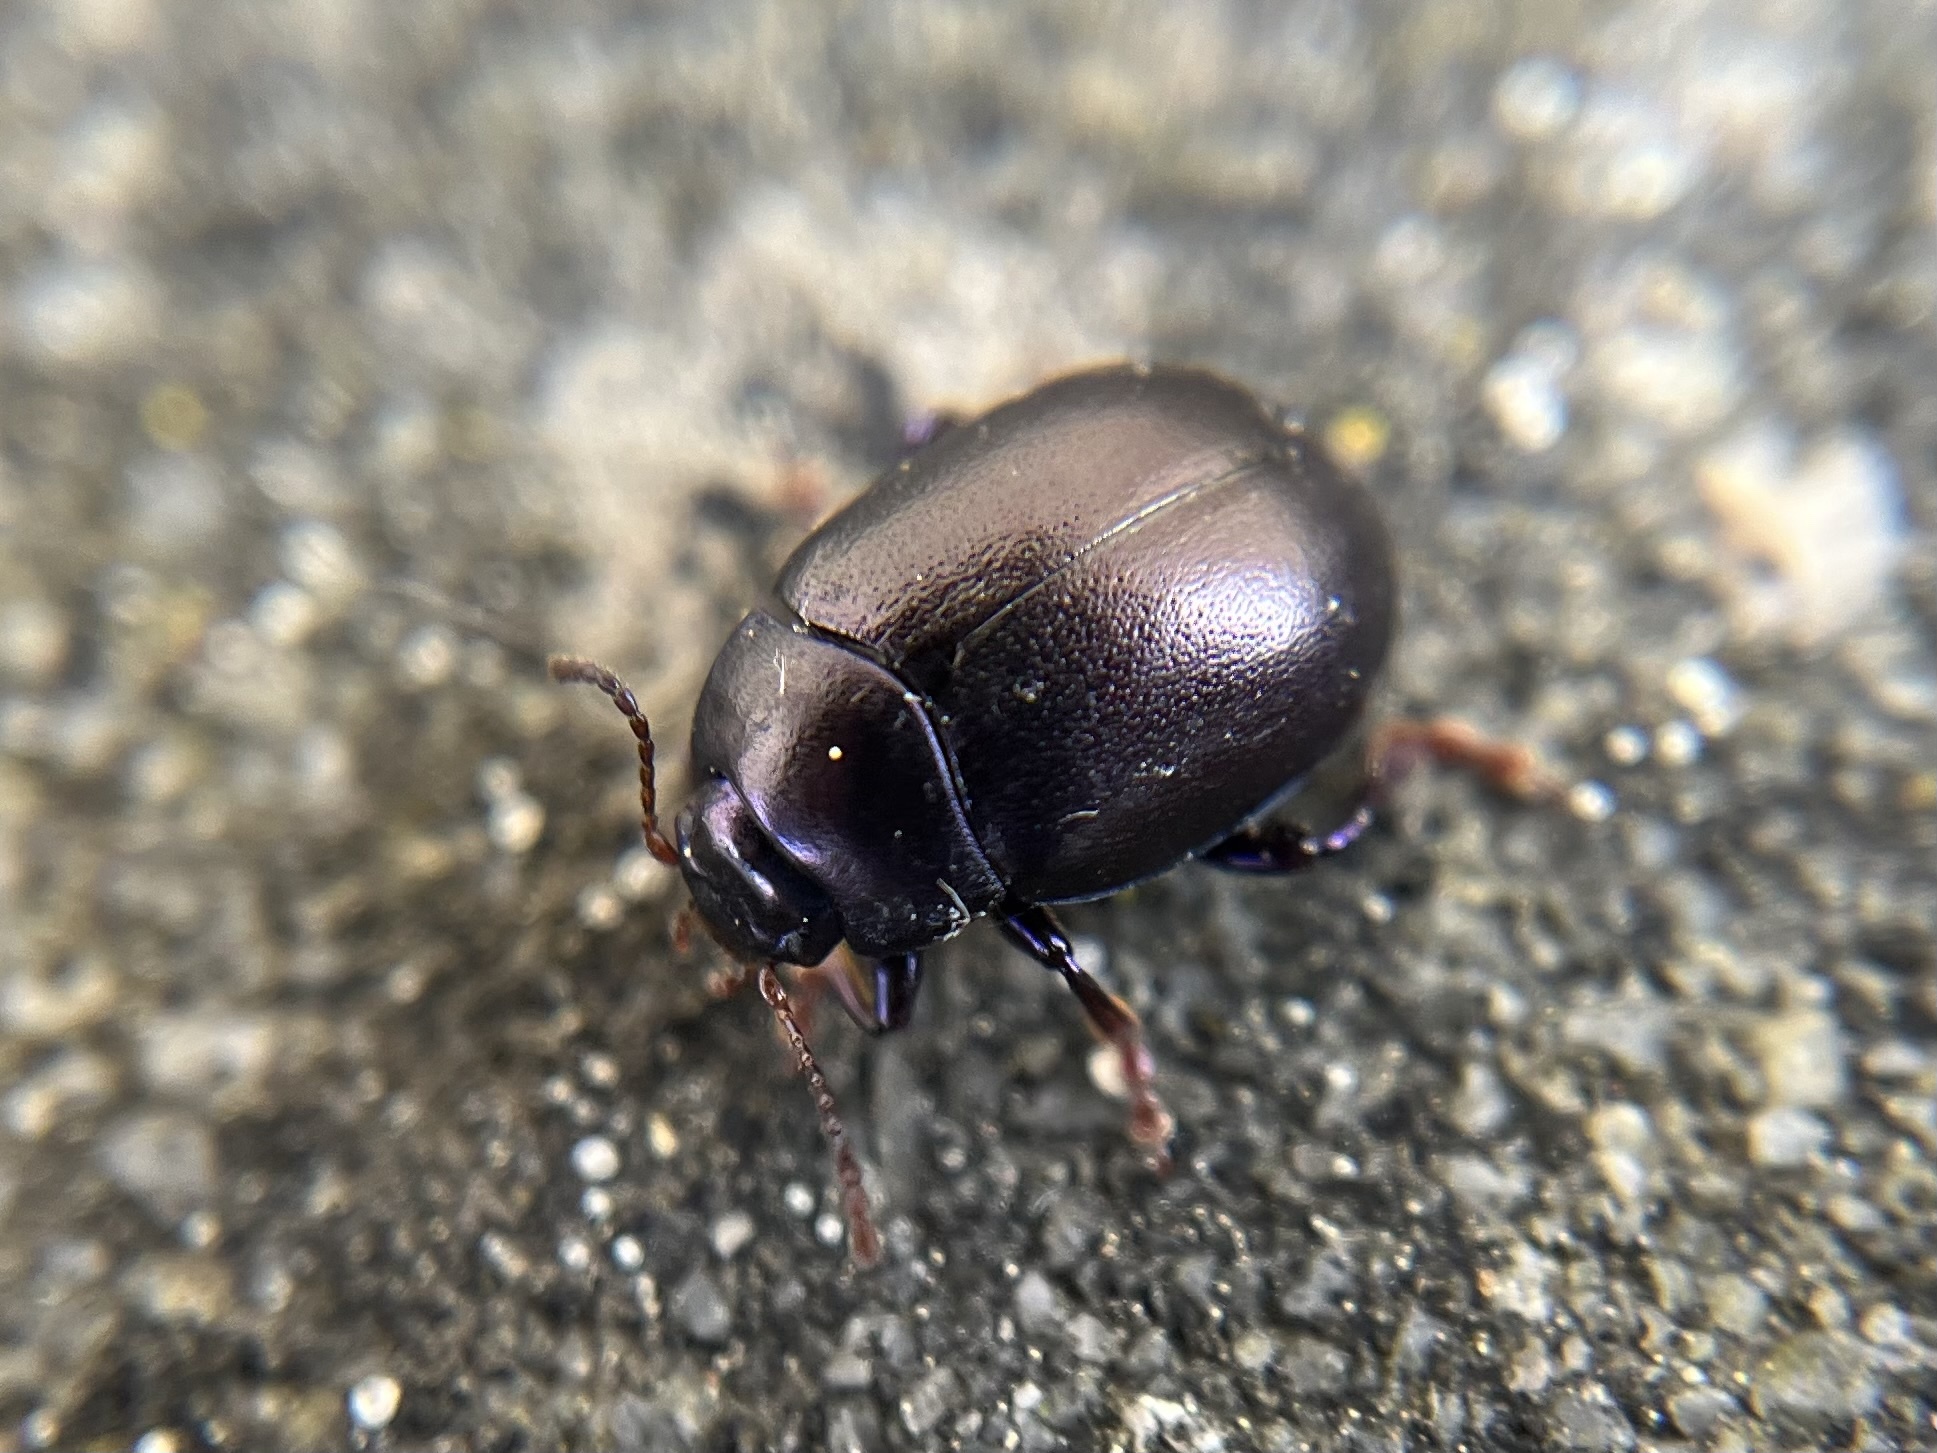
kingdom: Animalia
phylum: Arthropoda
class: Insecta
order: Coleoptera
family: Chrysomelidae
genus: Chrysolina
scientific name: Chrysolina sturmi
